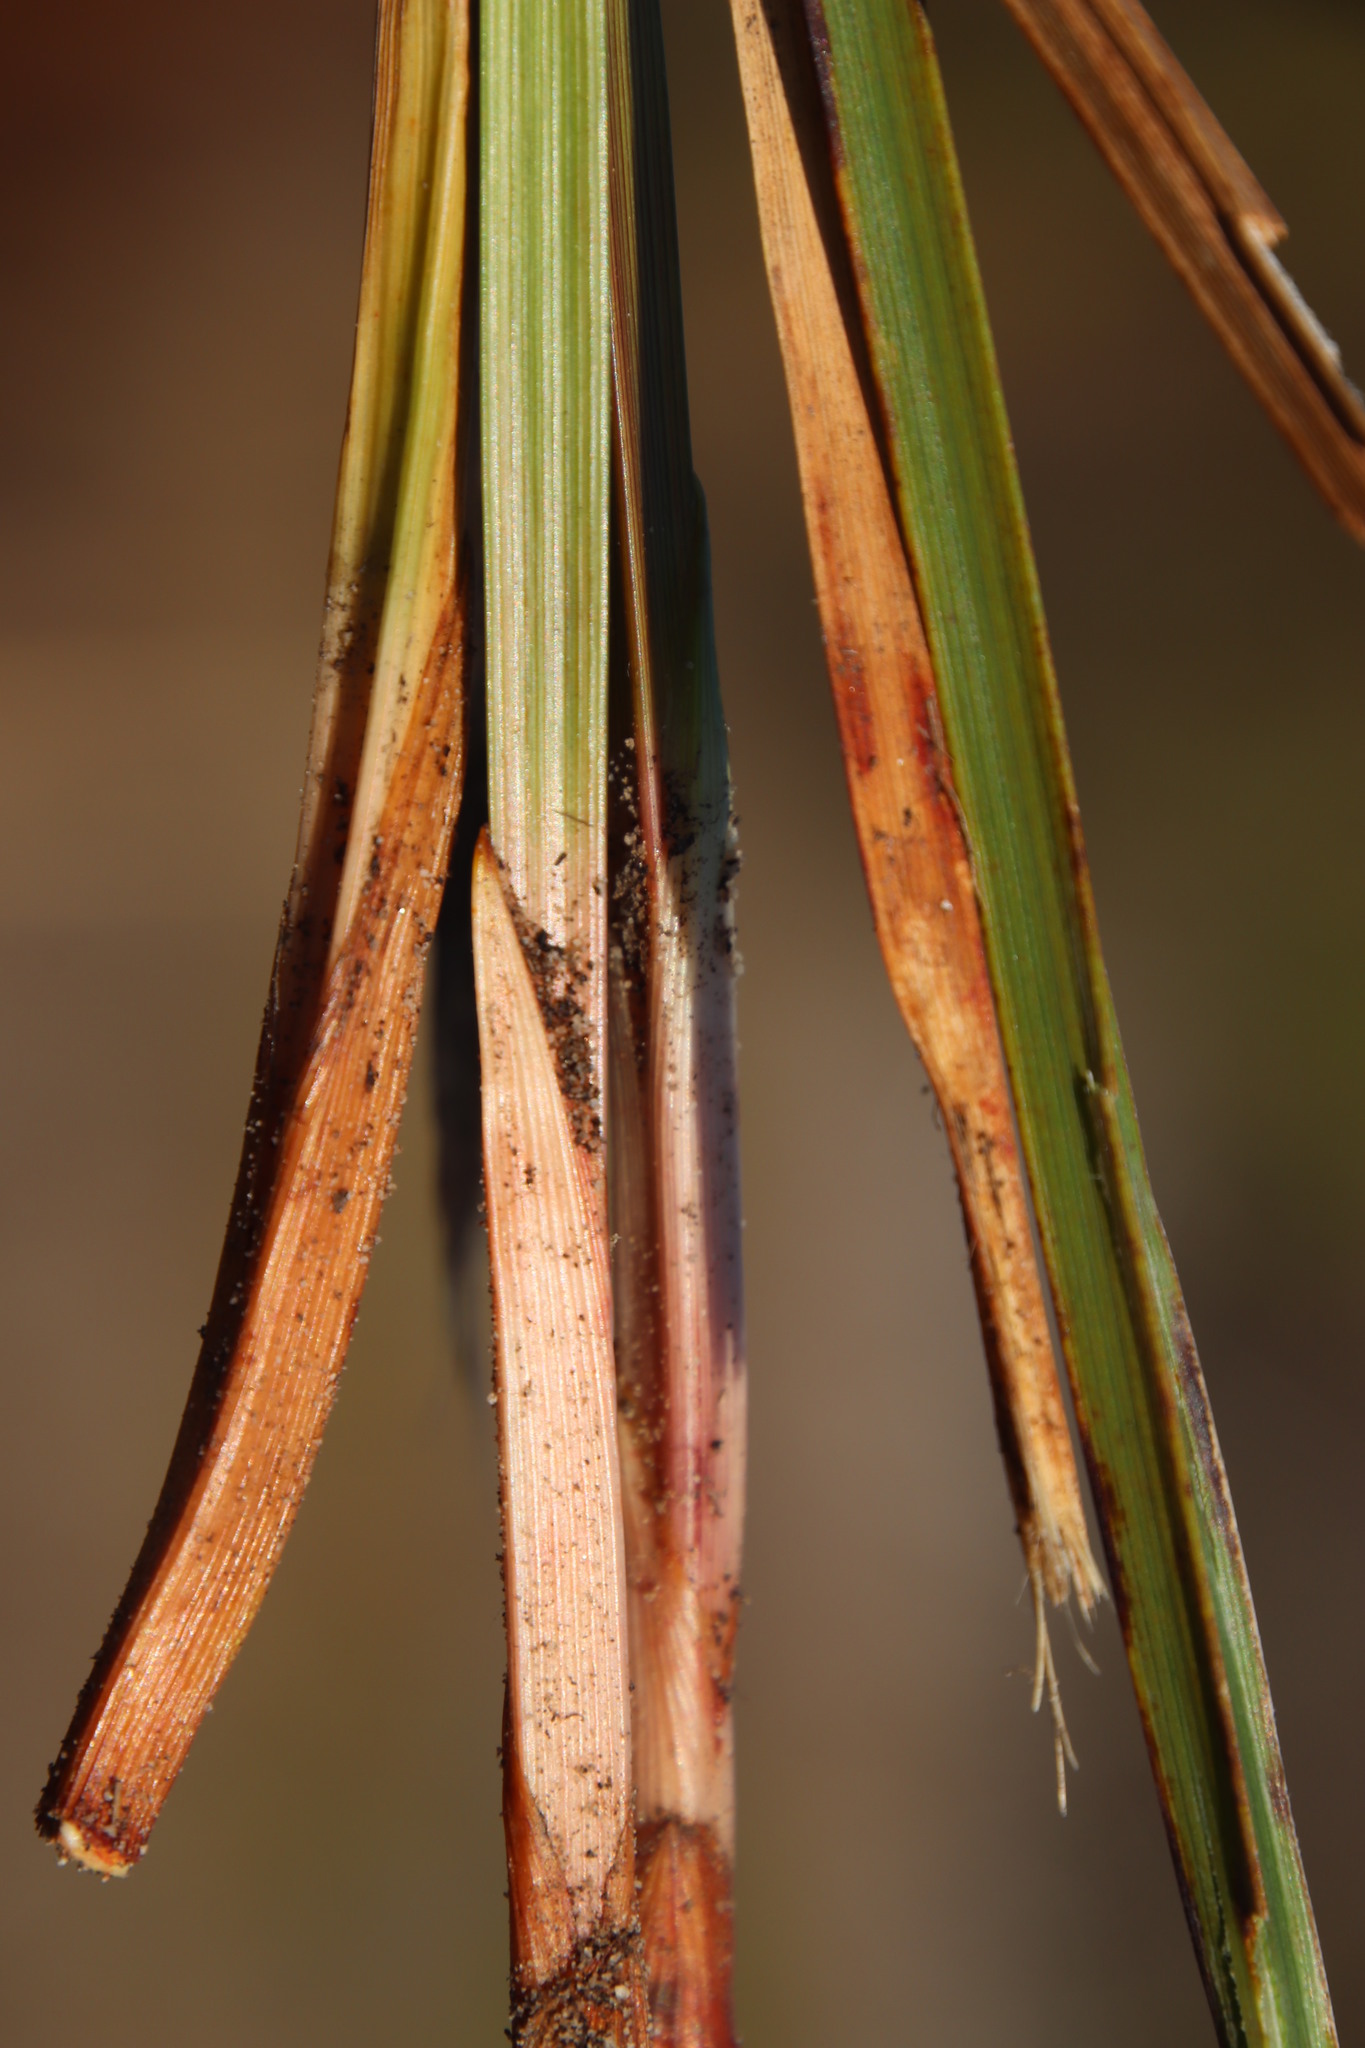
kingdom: Plantae
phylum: Tracheophyta
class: Liliopsida
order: Poales
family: Cyperaceae
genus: Cyperus
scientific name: Cyperus denudatus
